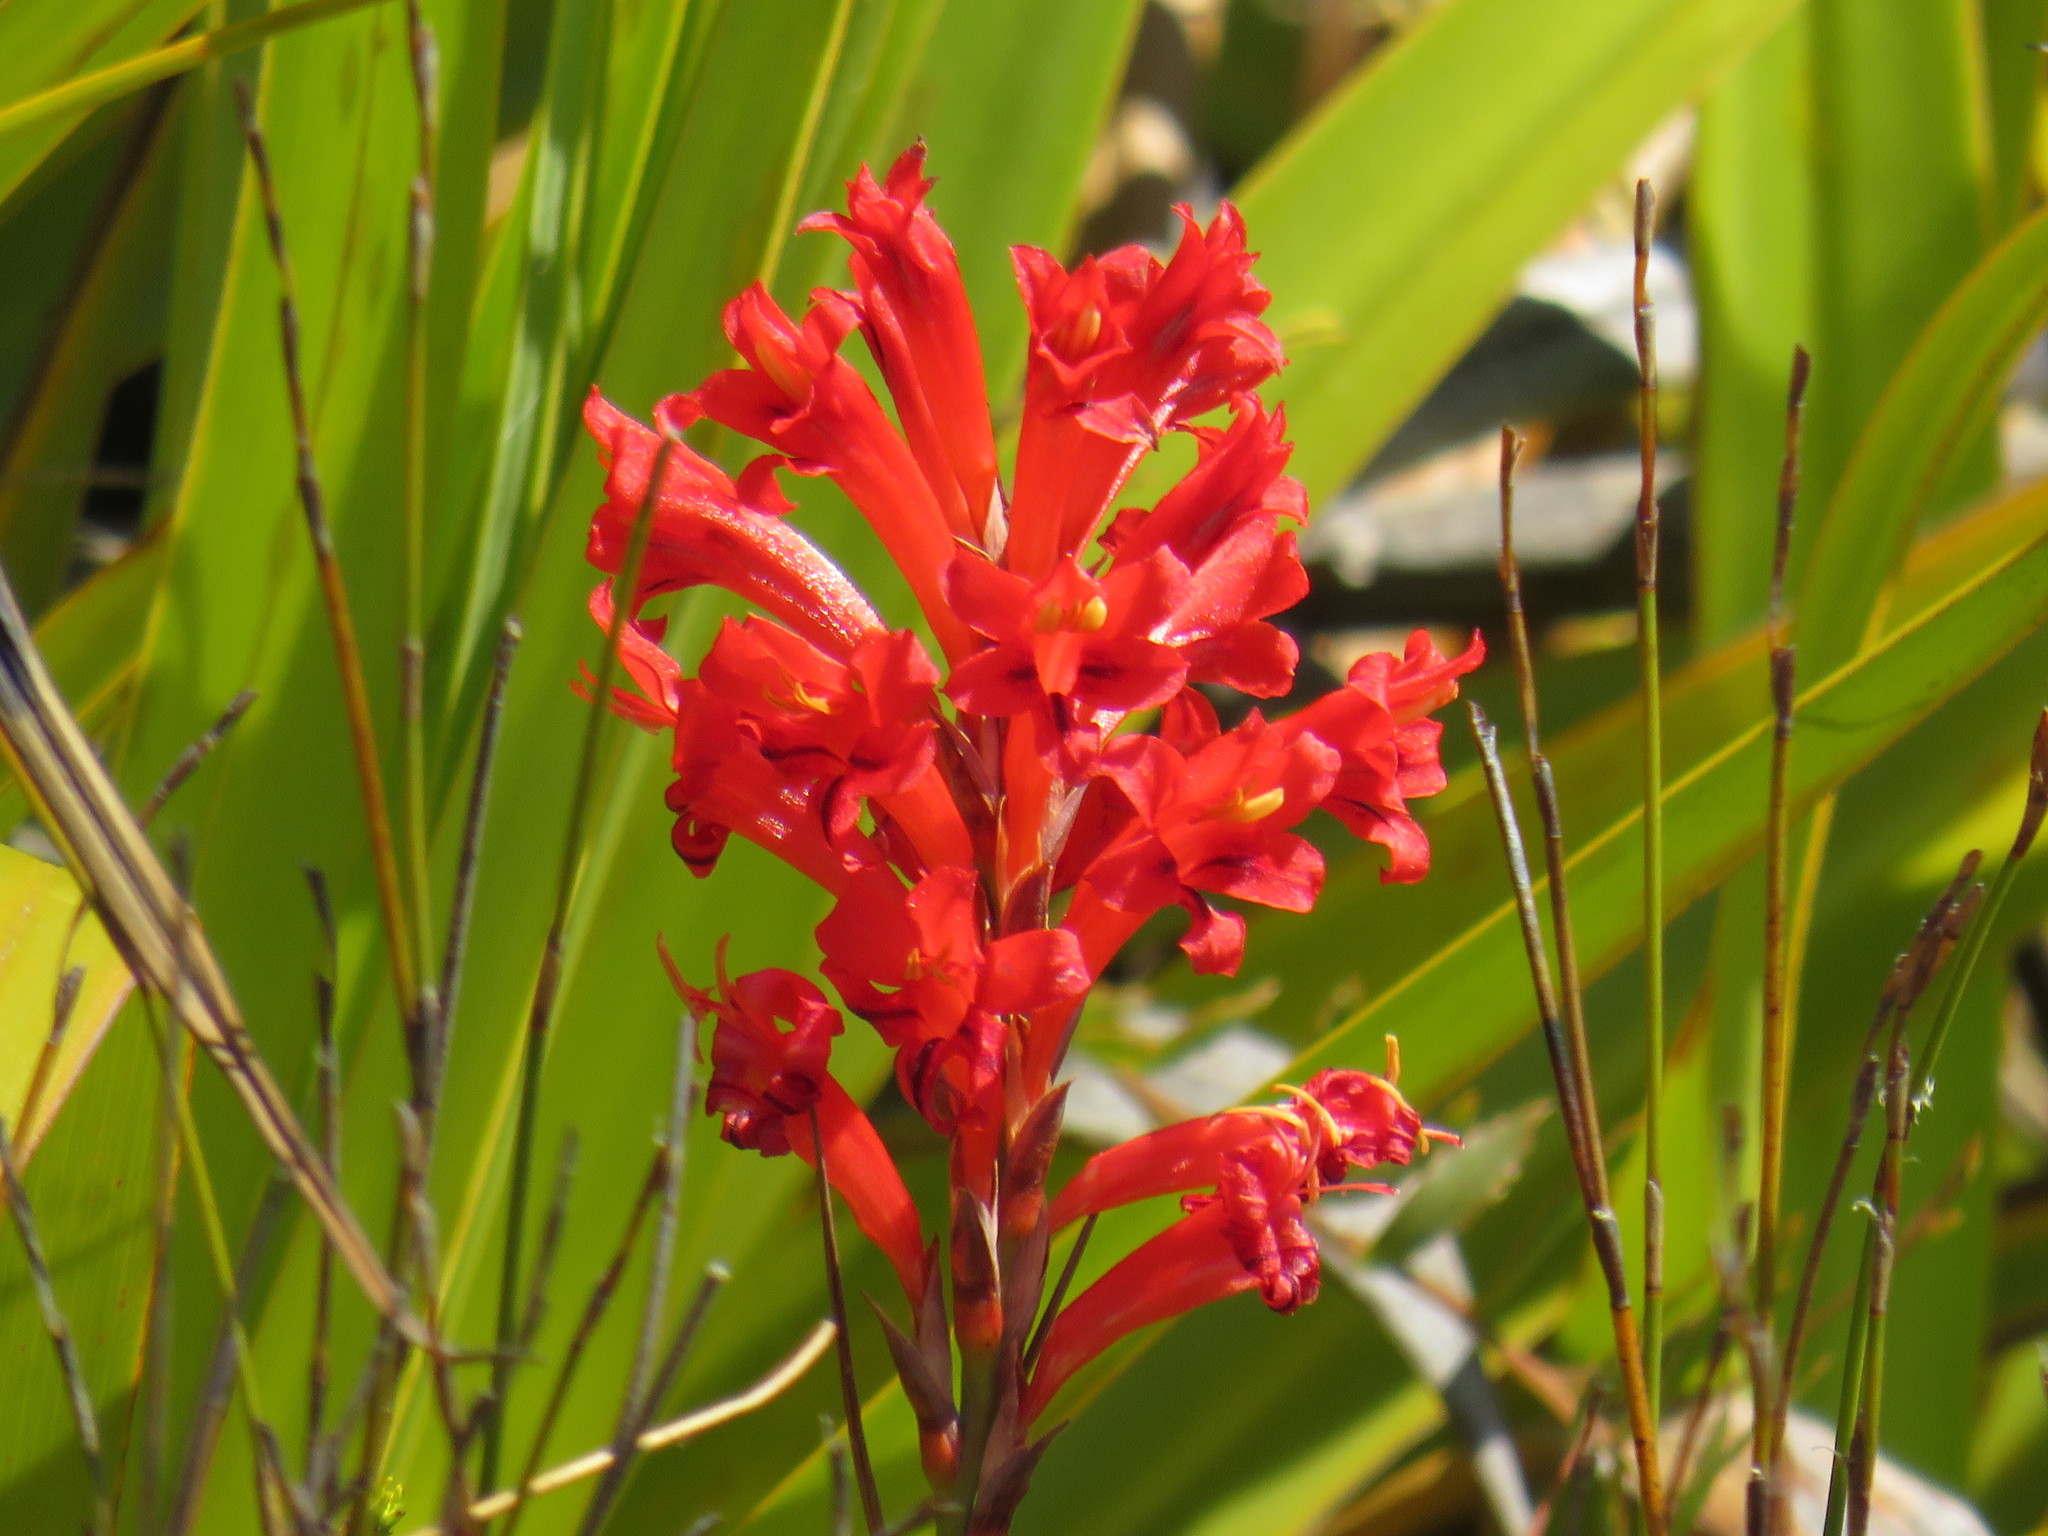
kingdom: Plantae
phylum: Tracheophyta
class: Liliopsida
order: Asparagales
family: Iridaceae
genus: Tritoniopsis
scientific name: Tritoniopsis triticea
